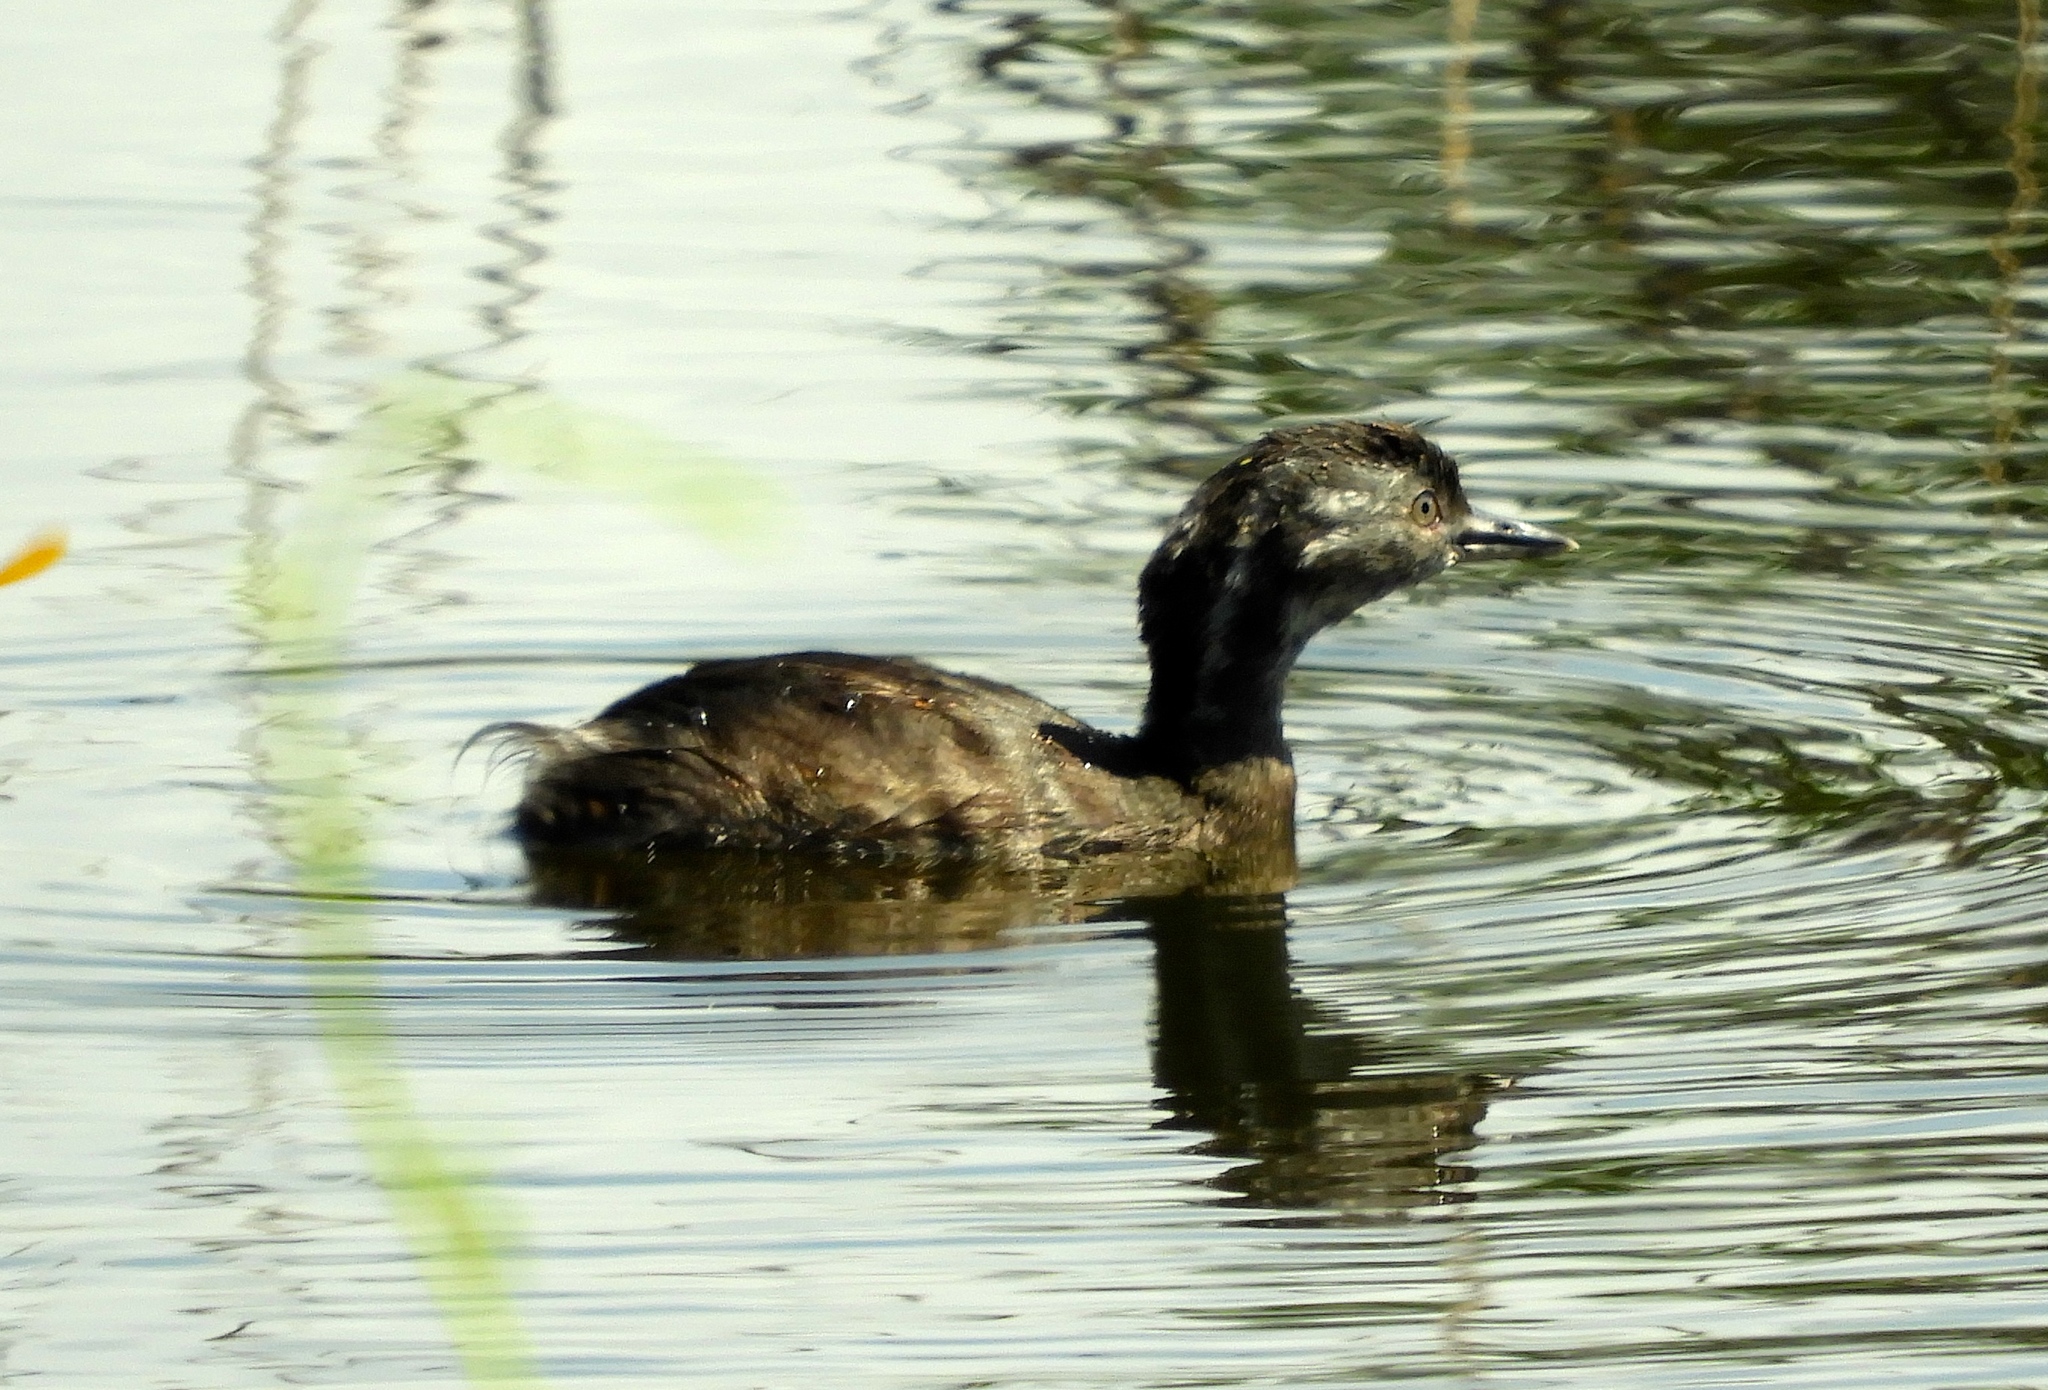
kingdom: Animalia
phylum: Chordata
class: Aves
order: Podicipediformes
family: Podicipedidae
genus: Tachybaptus
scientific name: Tachybaptus dominicus
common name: Least grebe
